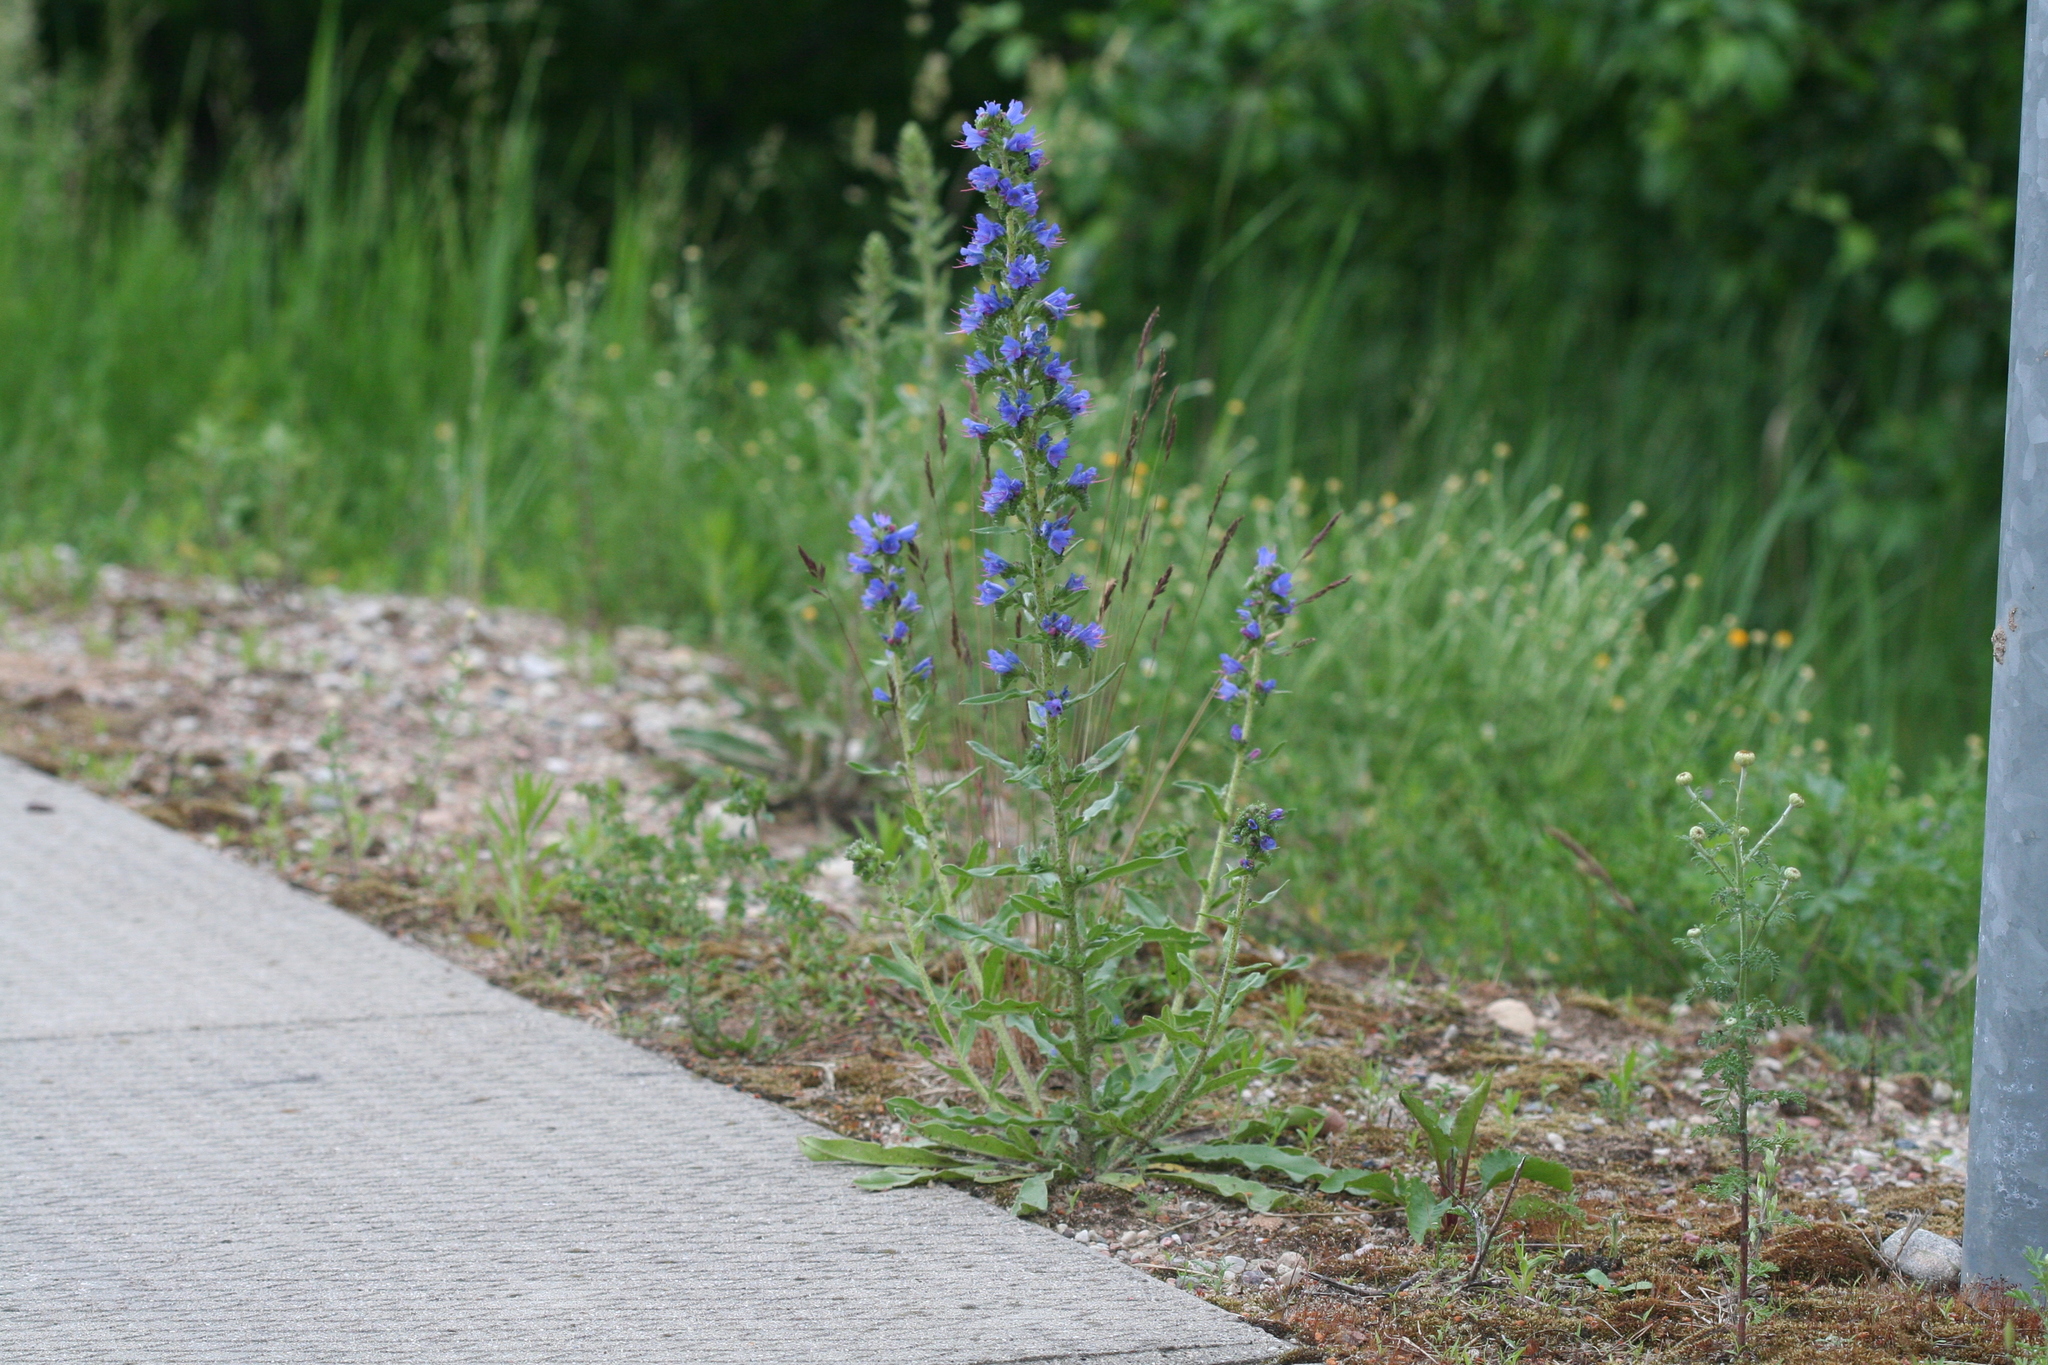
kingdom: Plantae
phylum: Tracheophyta
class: Magnoliopsida
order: Boraginales
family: Boraginaceae
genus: Echium
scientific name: Echium vulgare
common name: Common viper's bugloss
